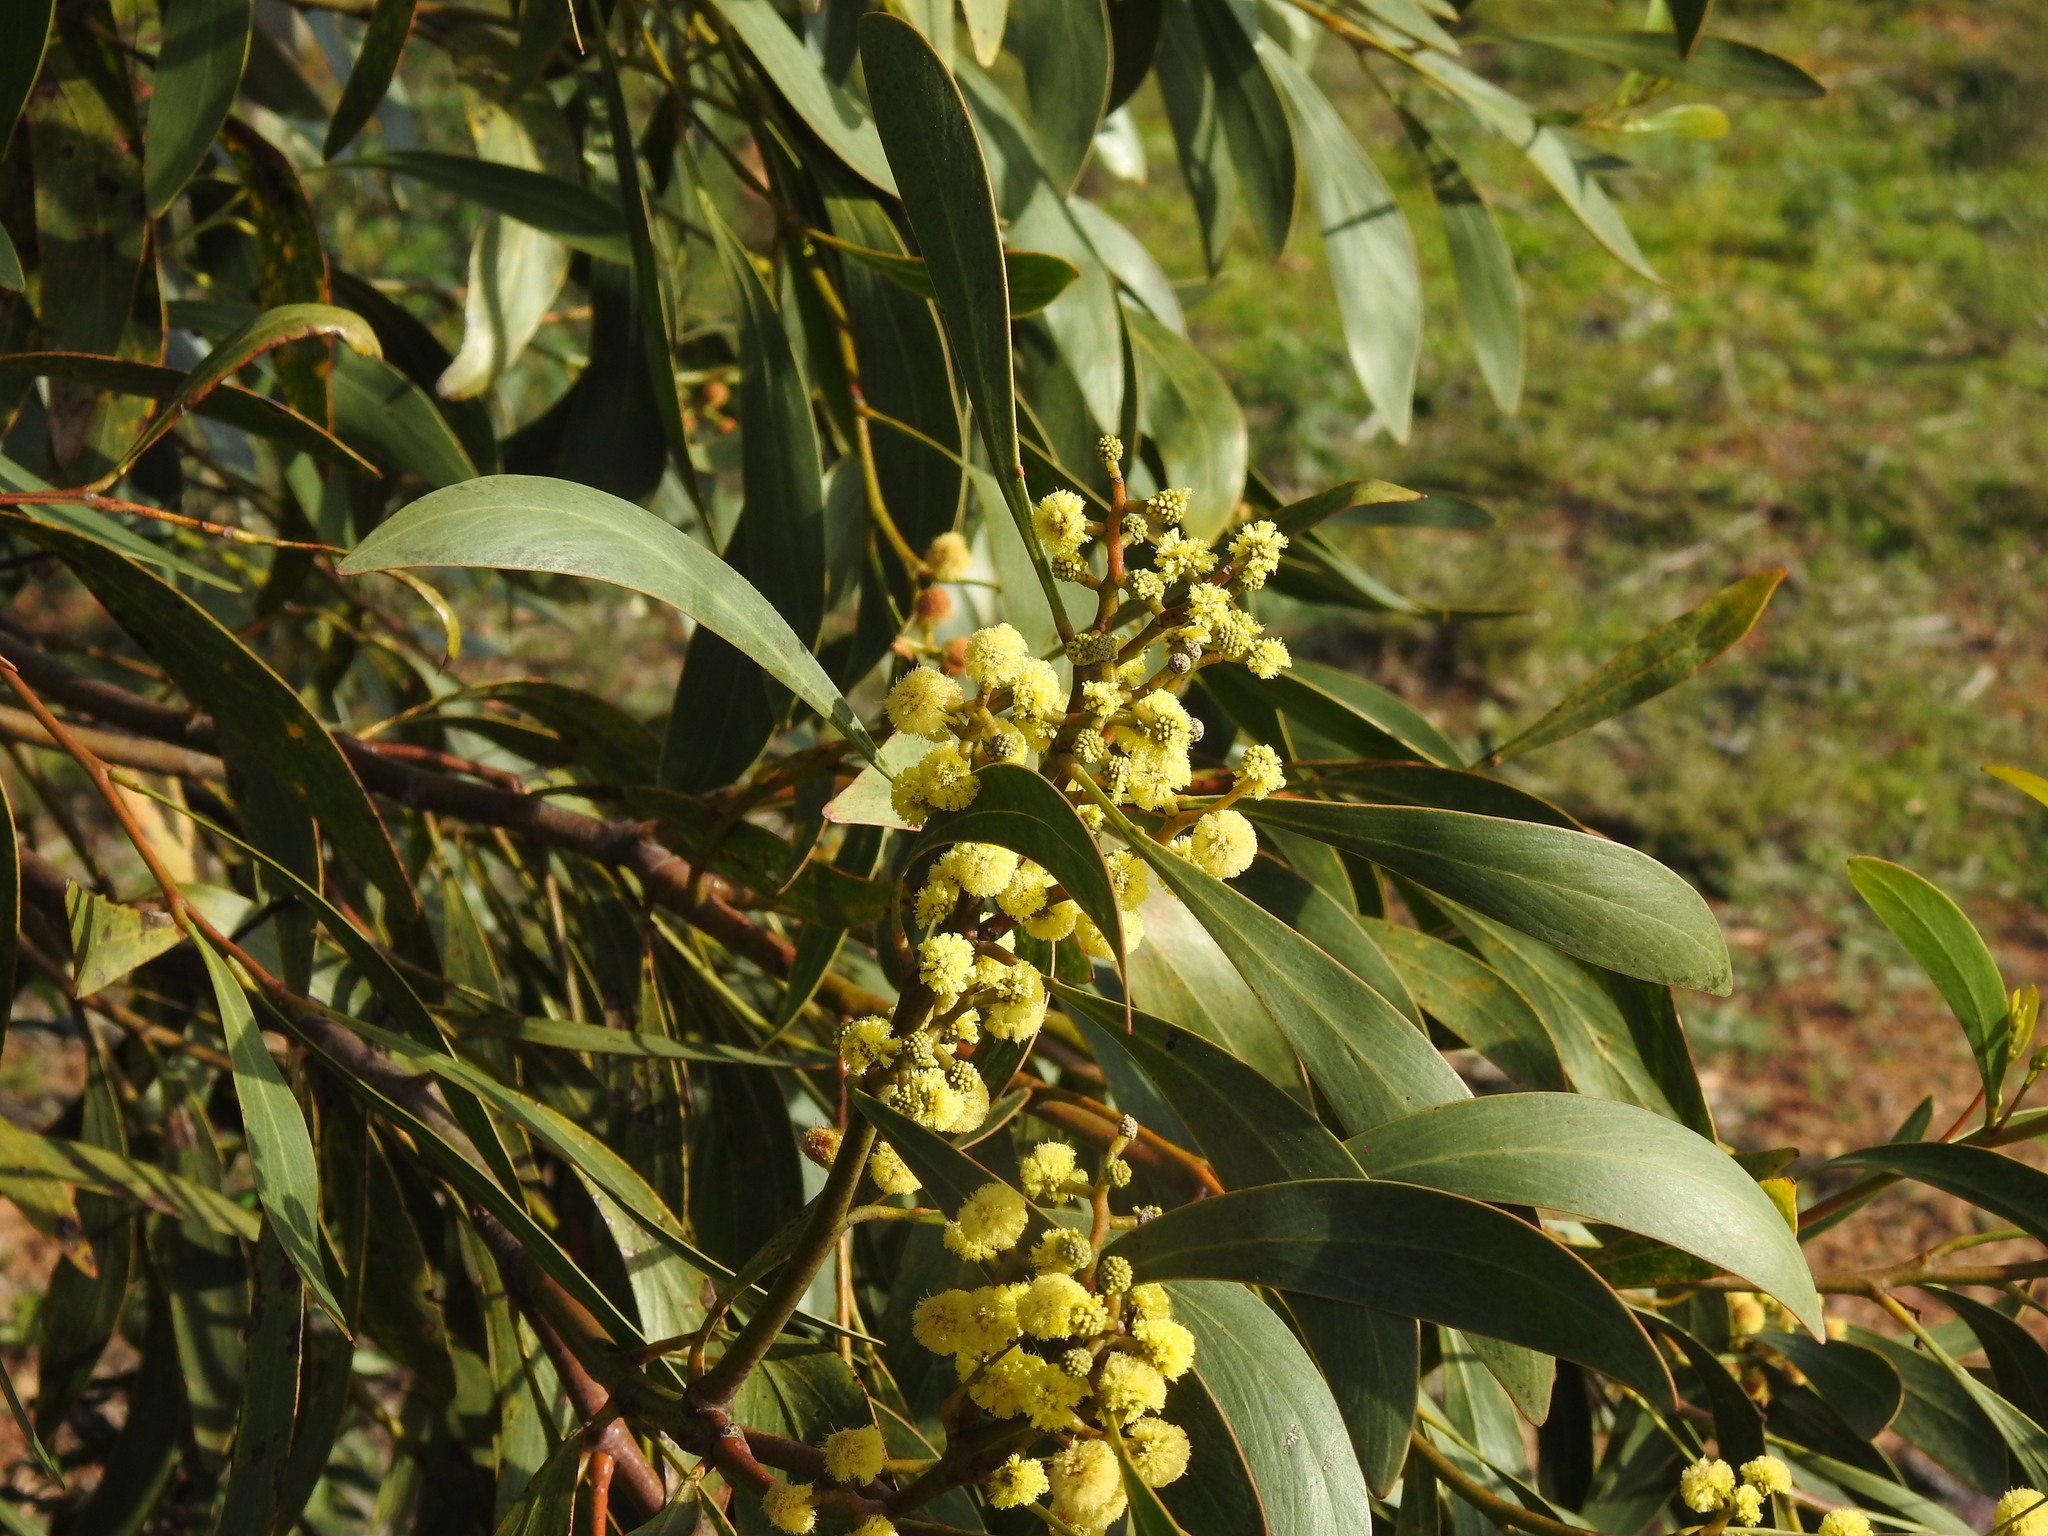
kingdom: Plantae
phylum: Tracheophyta
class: Magnoliopsida
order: Fabales
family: Fabaceae
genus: Acacia
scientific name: Acacia pycnantha
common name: Golden wattle
